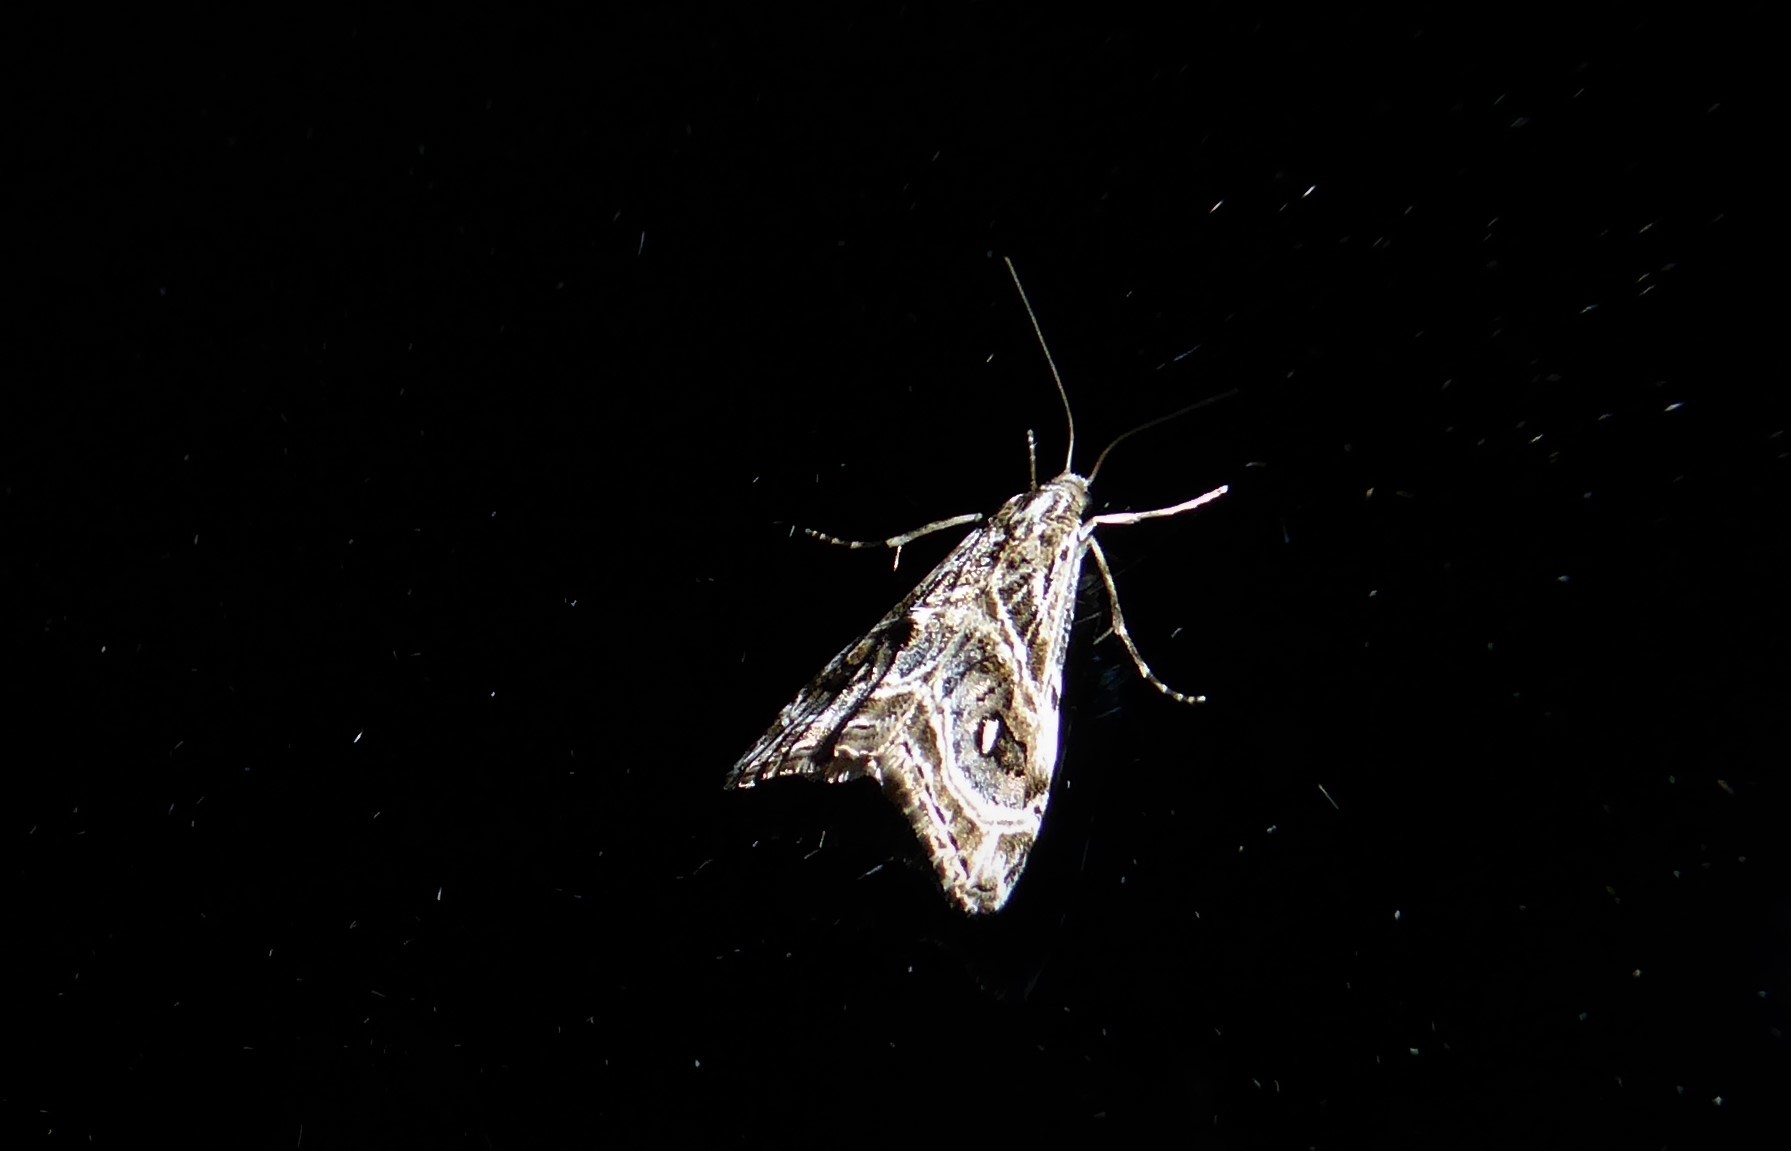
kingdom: Animalia
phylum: Arthropoda
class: Insecta
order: Lepidoptera
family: Crambidae
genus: Gadira
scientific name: Gadira acerella
